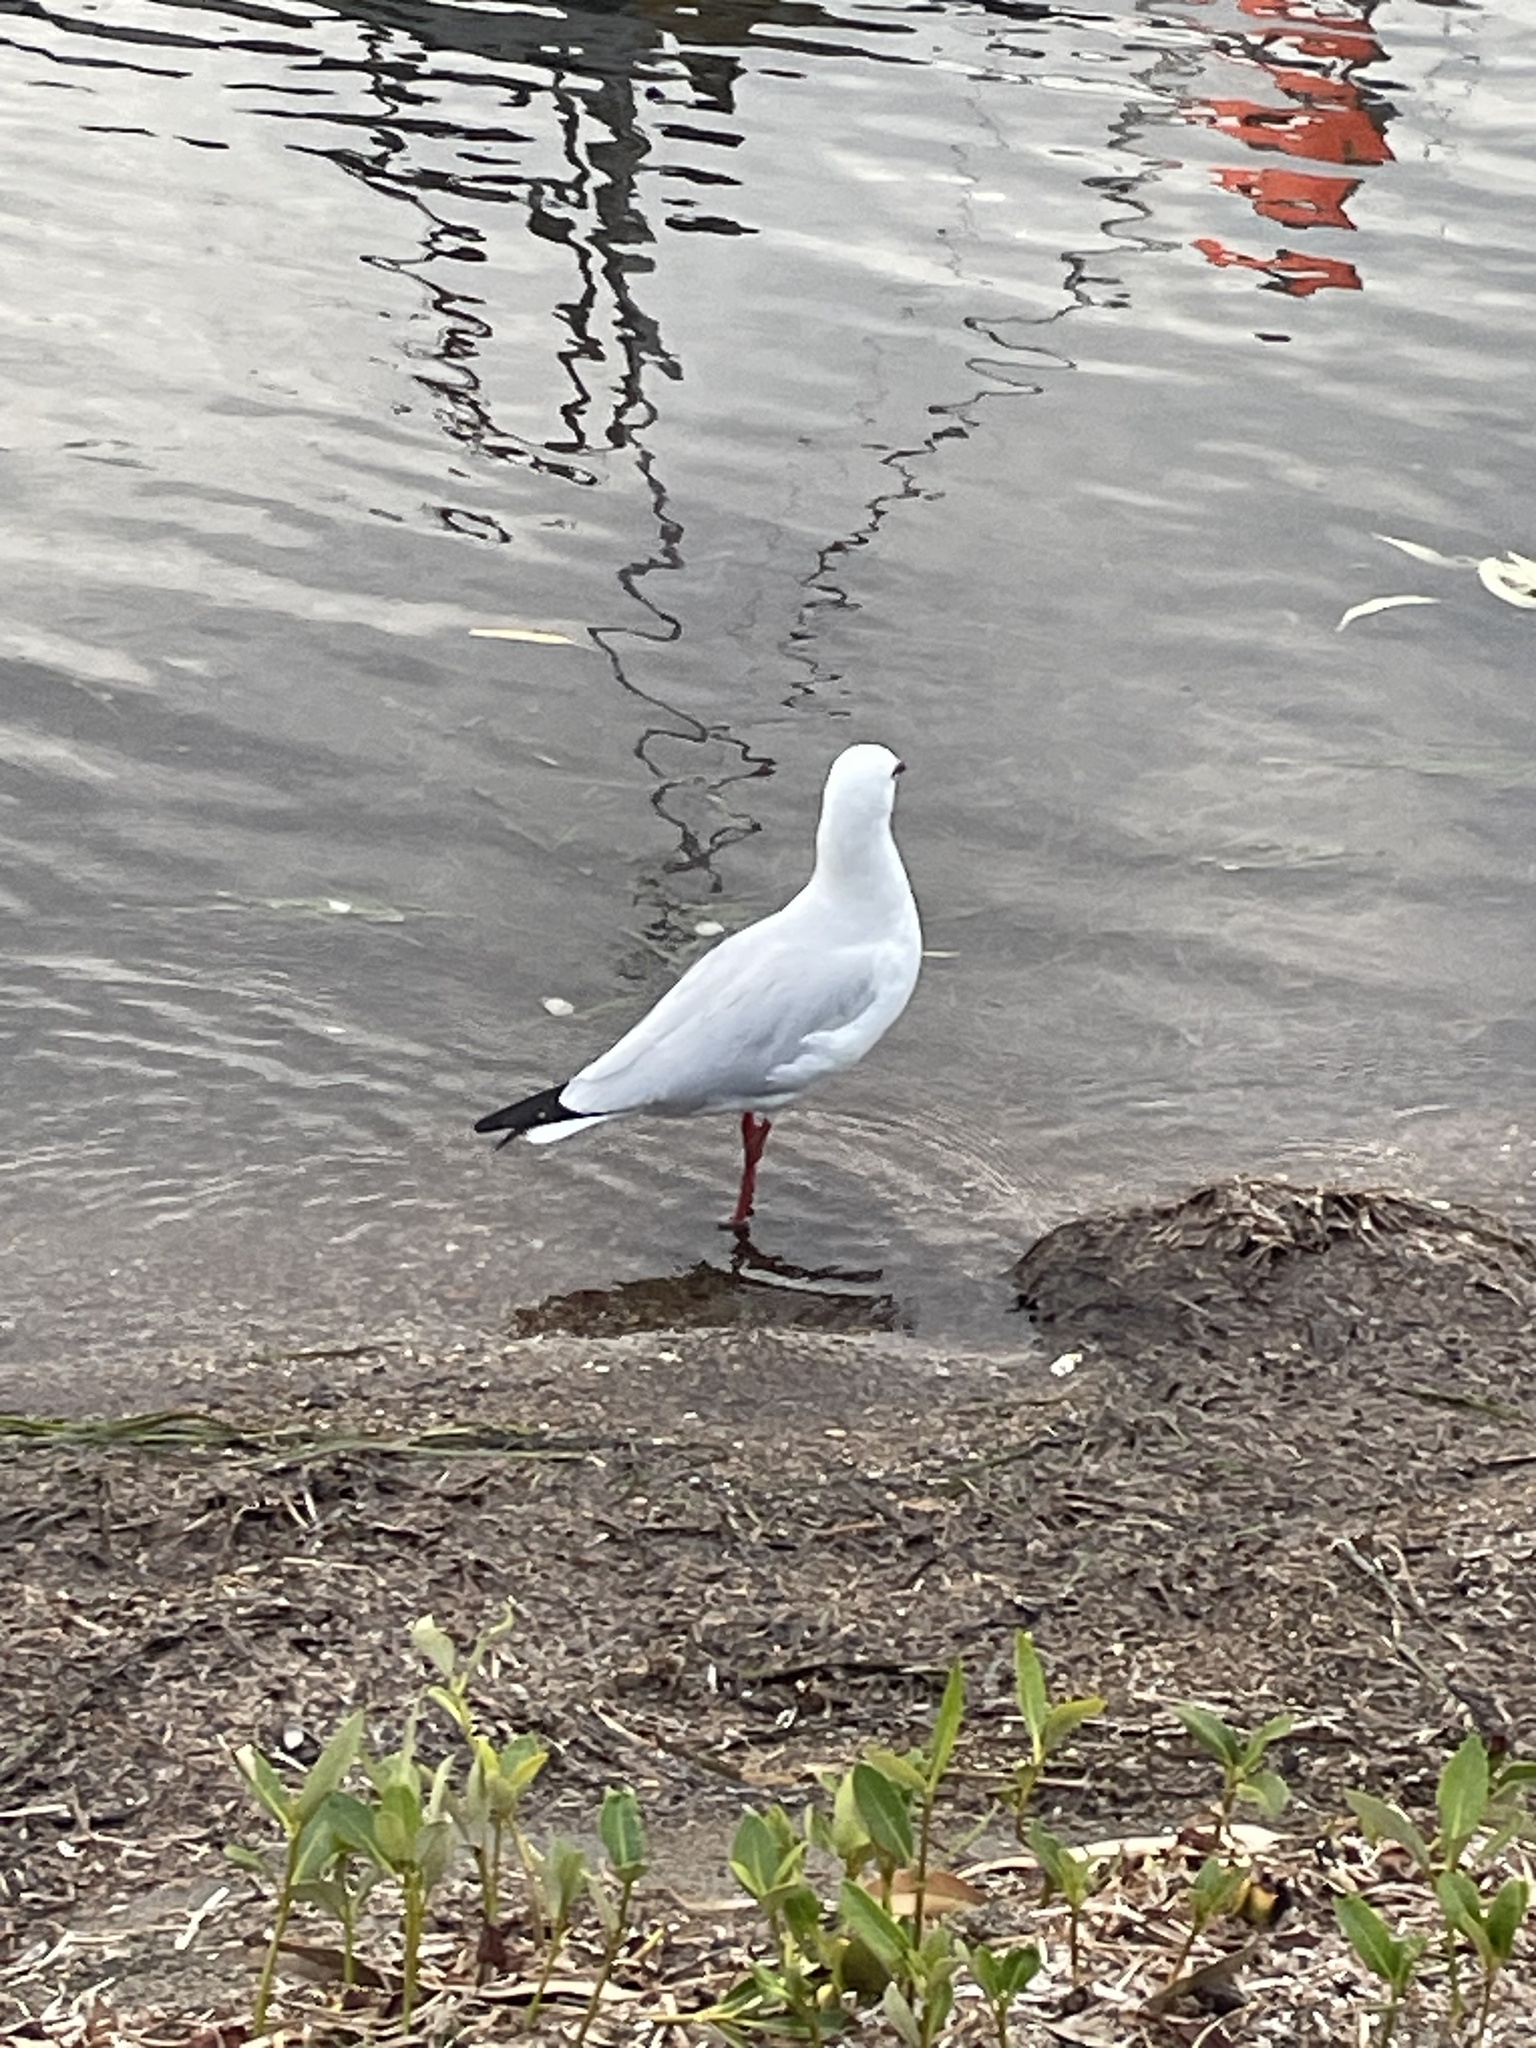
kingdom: Animalia
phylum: Chordata
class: Aves
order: Charadriiformes
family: Laridae
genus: Chroicocephalus
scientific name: Chroicocephalus novaehollandiae
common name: Silver gull
